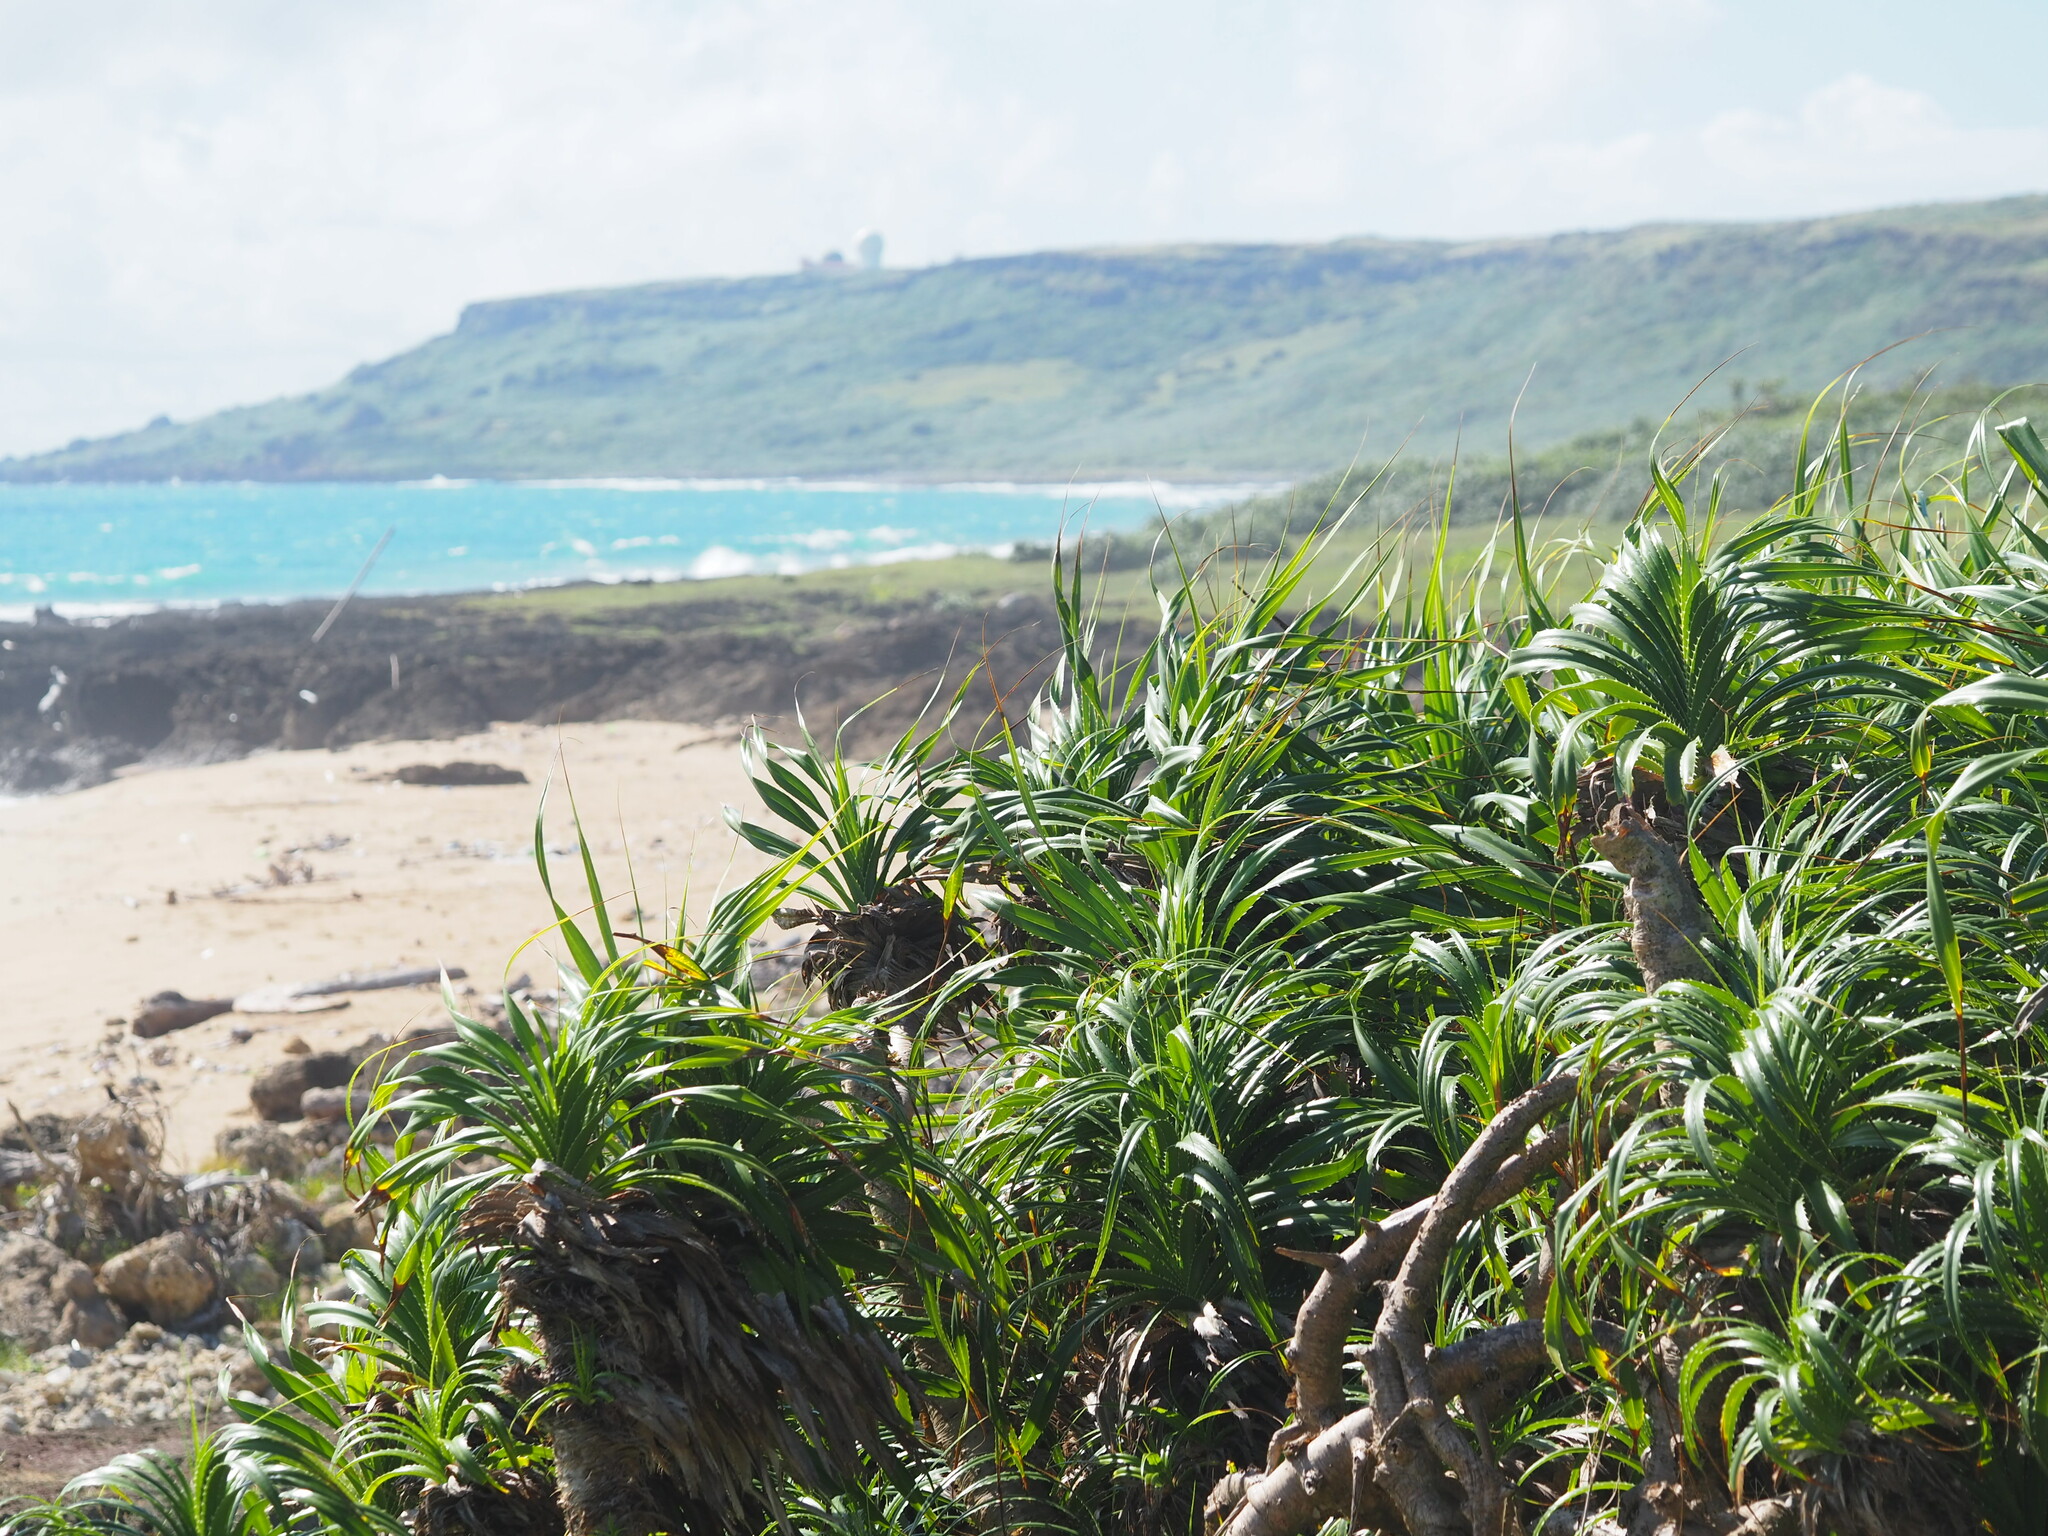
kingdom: Plantae
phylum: Tracheophyta
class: Liliopsida
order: Pandanales
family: Pandanaceae
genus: Pandanus
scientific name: Pandanus odorifer
